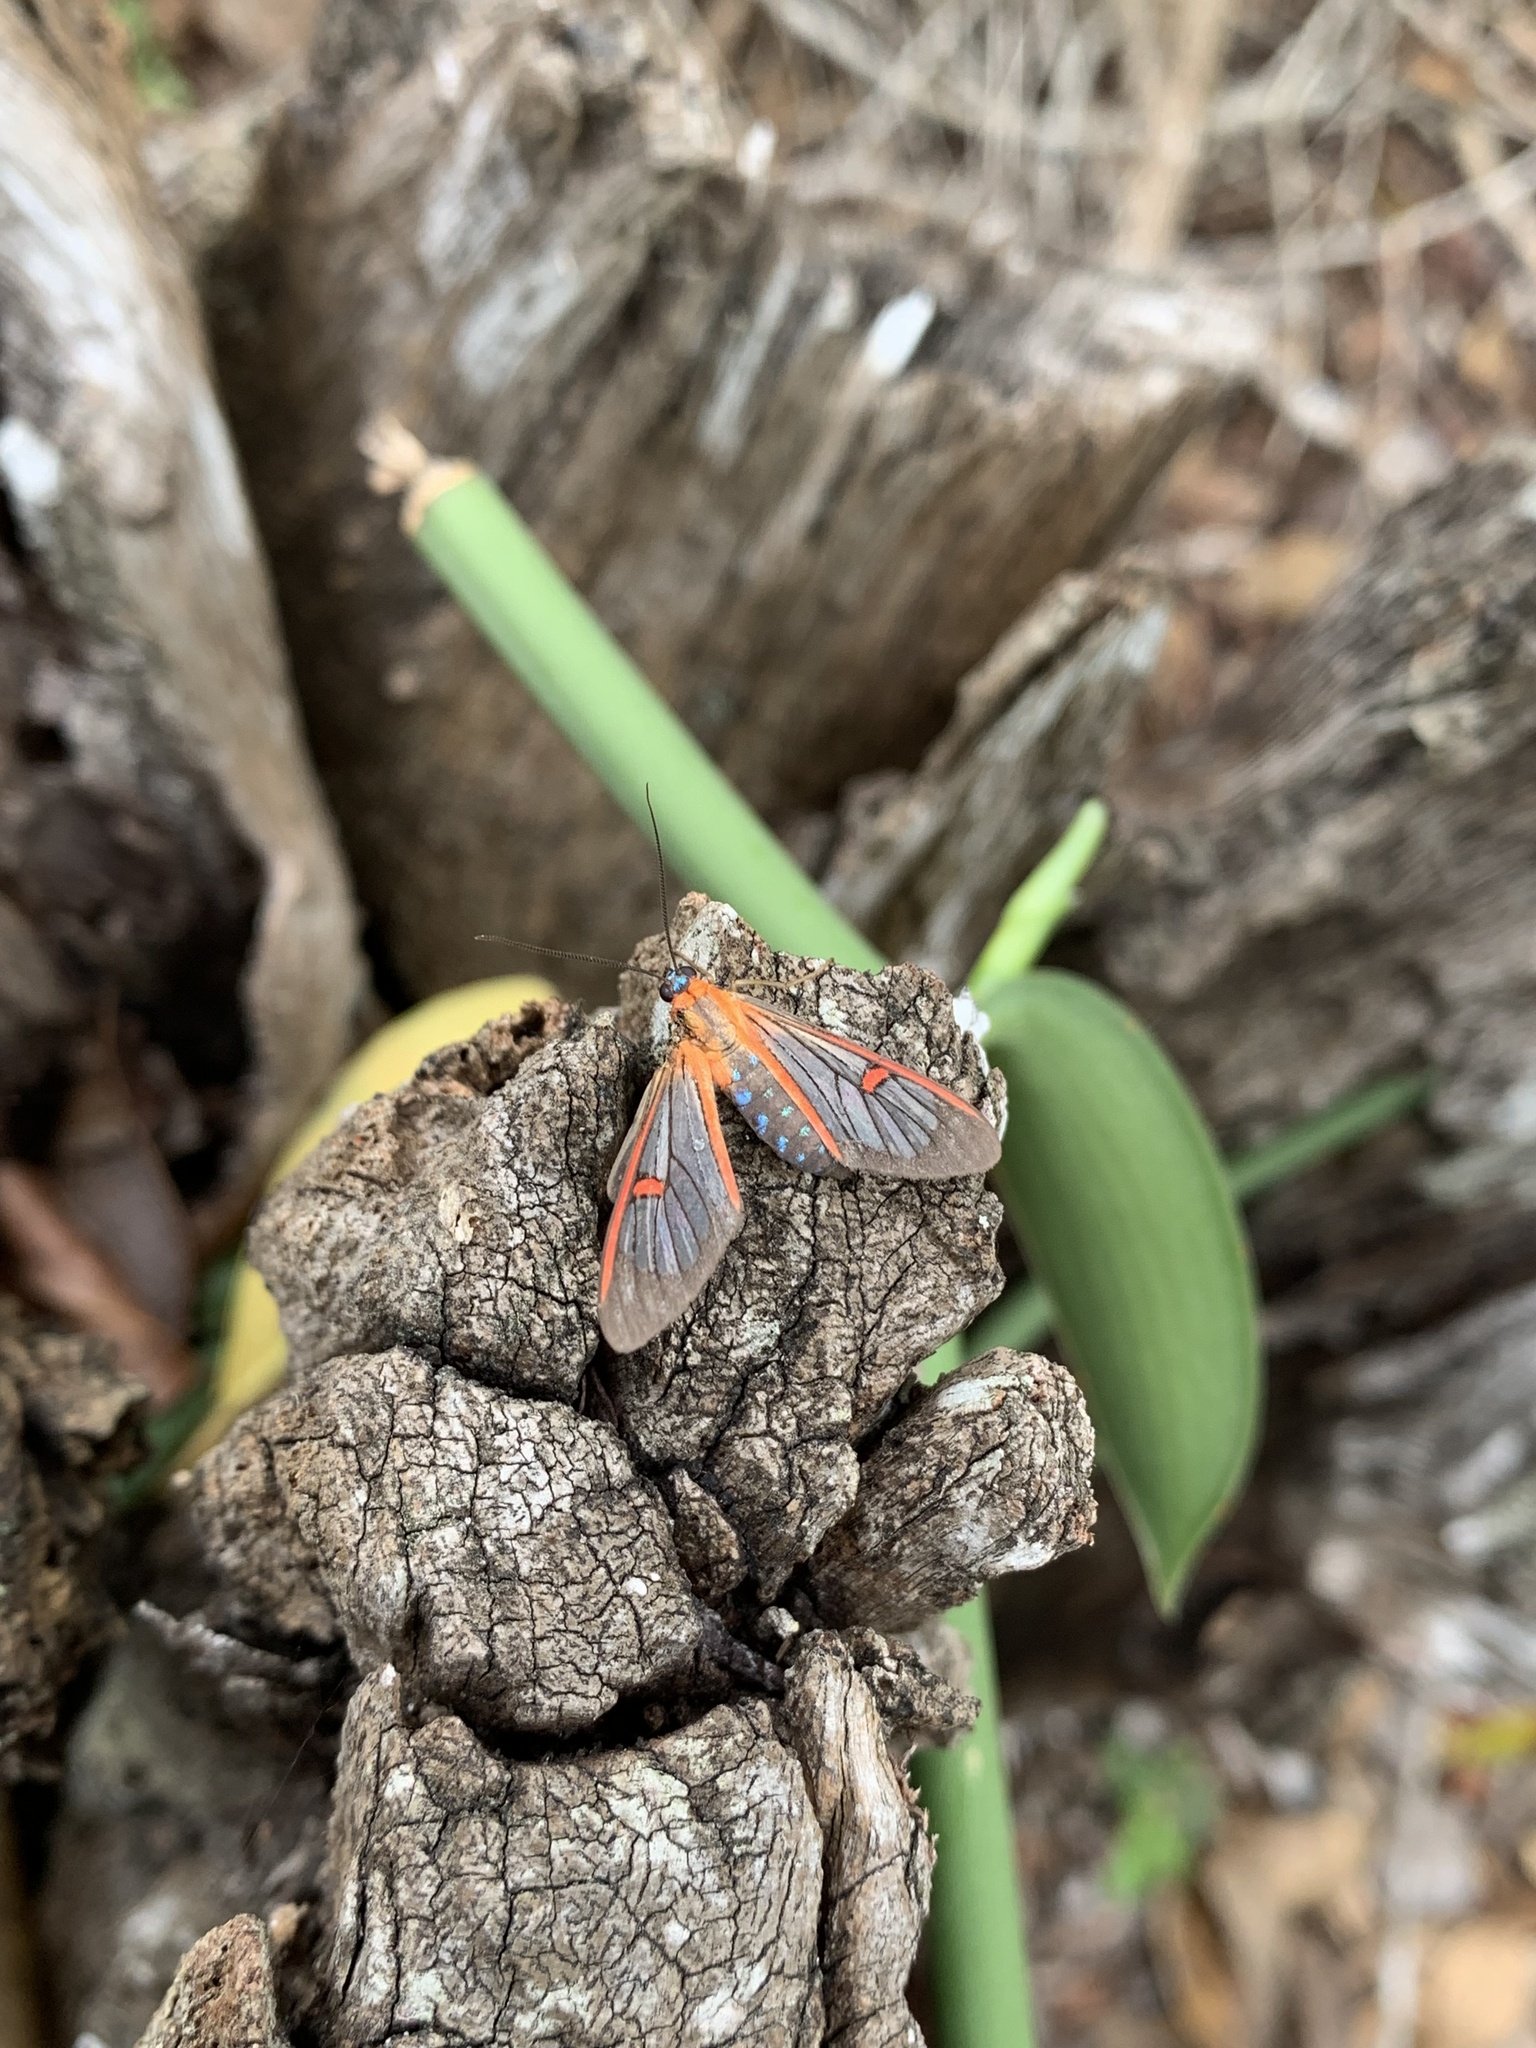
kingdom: Animalia
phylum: Arthropoda
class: Insecta
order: Lepidoptera
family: Erebidae
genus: Lepidoneiva
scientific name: Lepidoneiva erubescens
